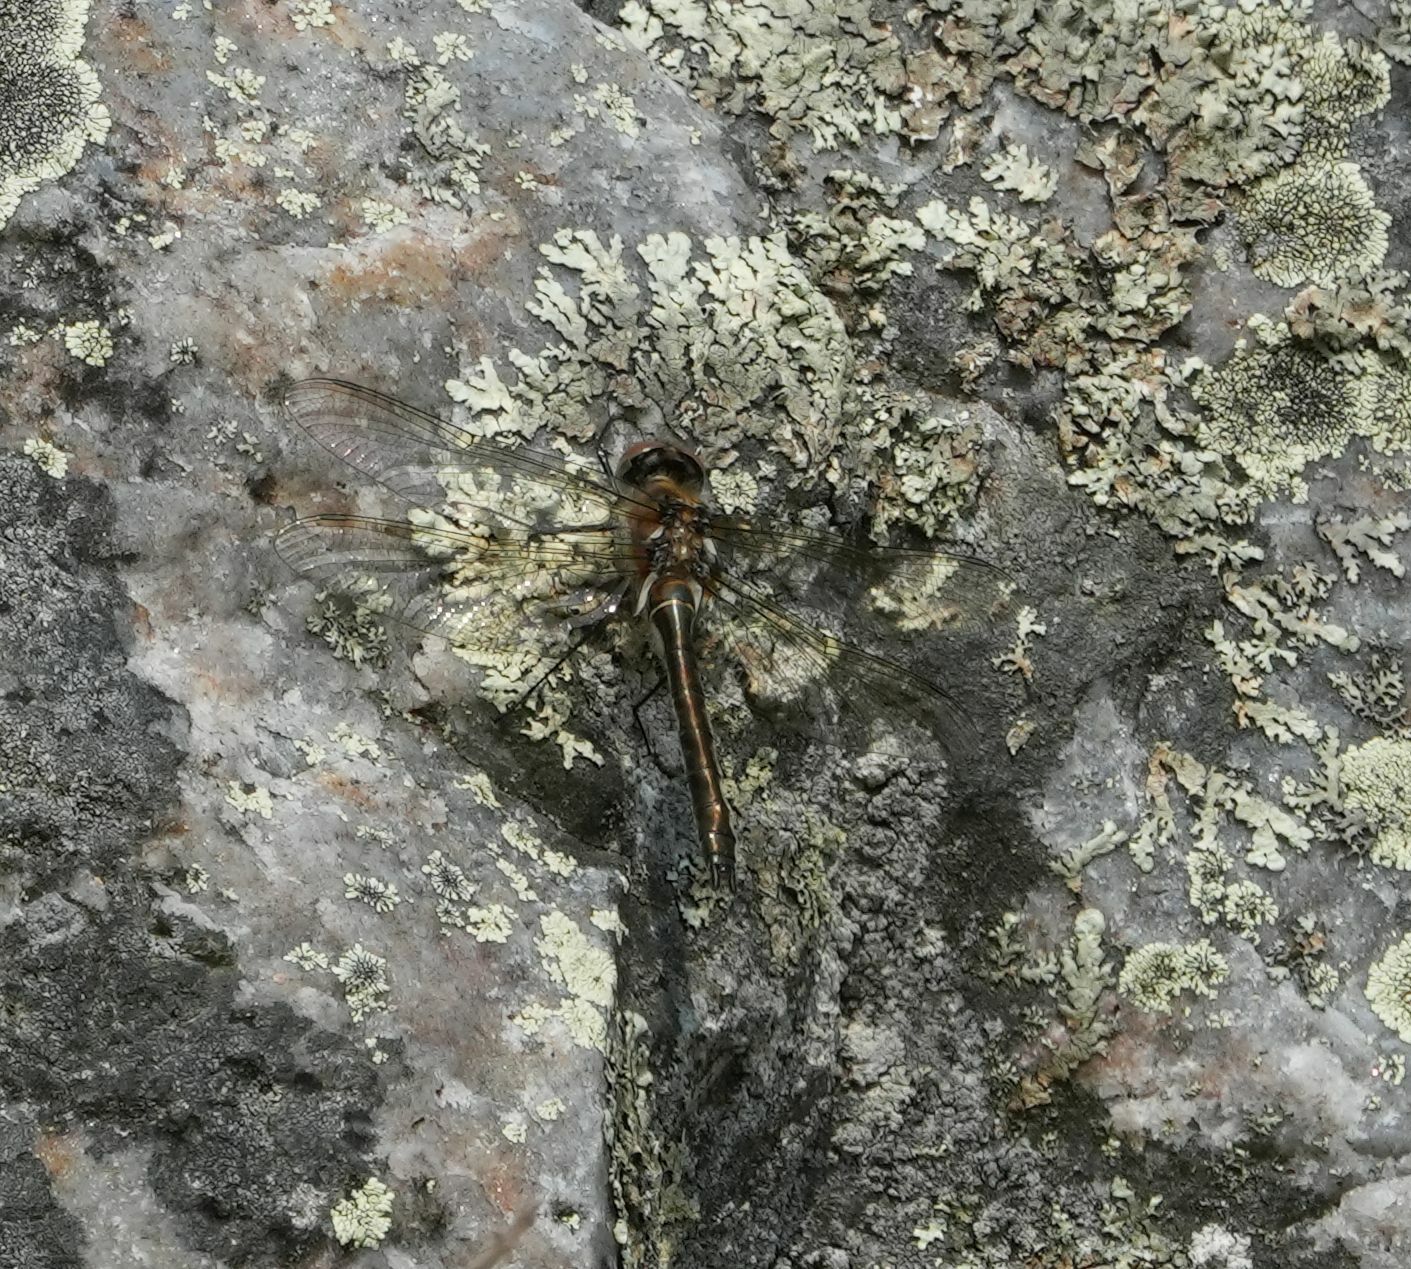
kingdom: Animalia
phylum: Arthropoda
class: Insecta
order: Odonata
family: Corduliidae
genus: Cordulia
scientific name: Cordulia shurtleffii
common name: American emerald
